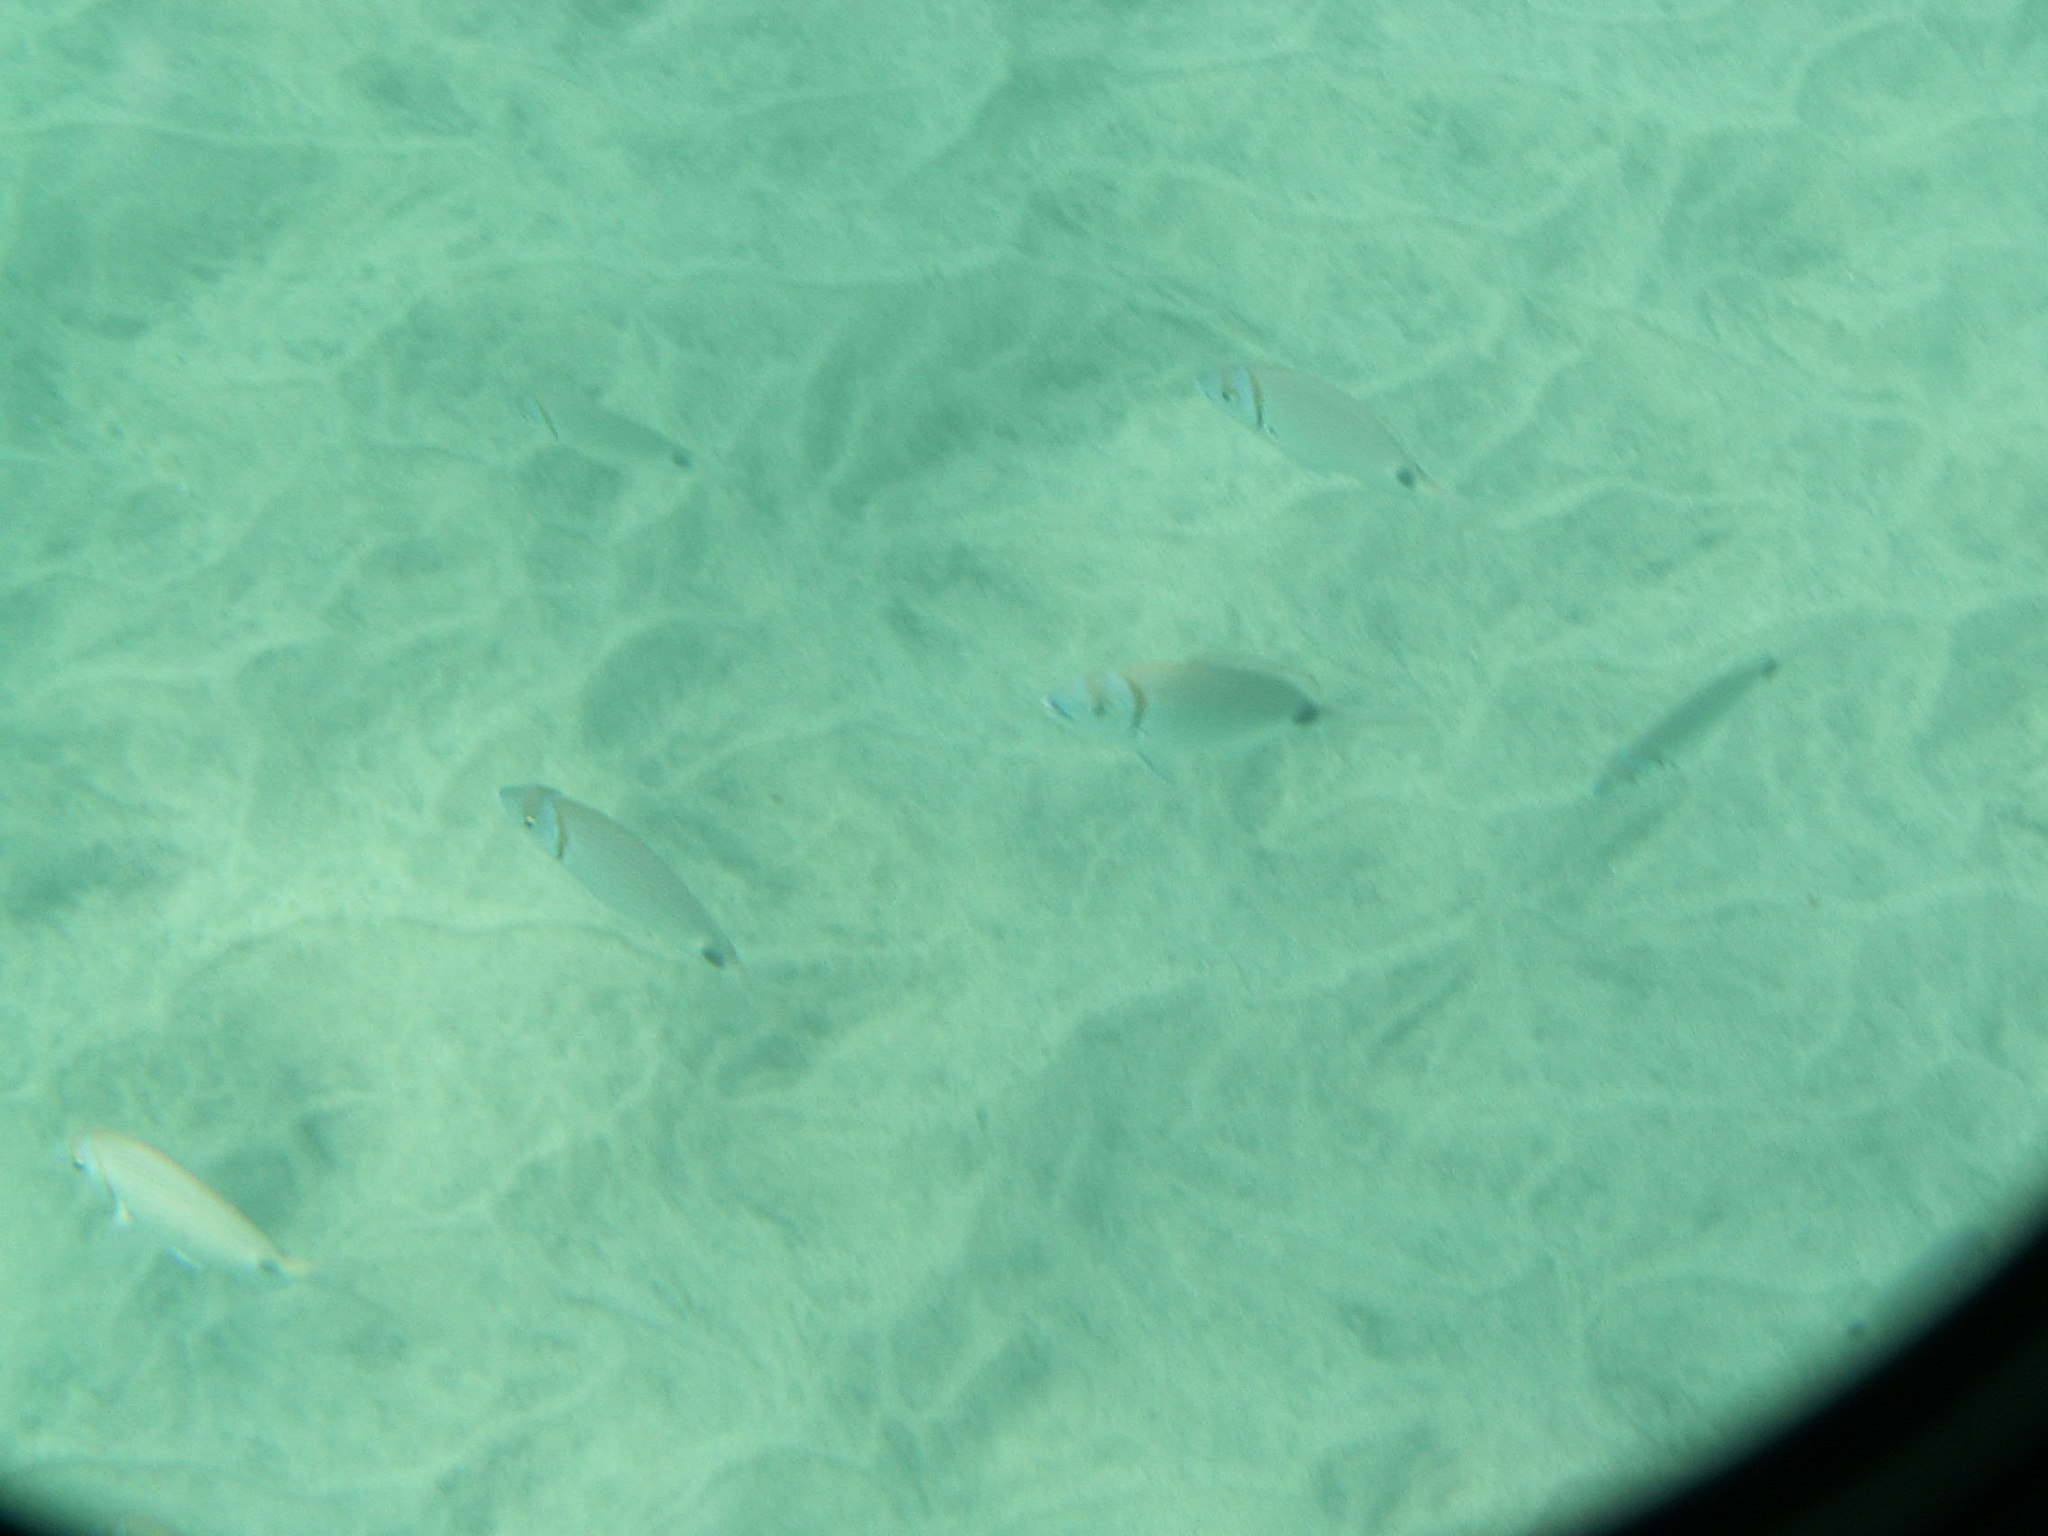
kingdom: Animalia
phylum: Chordata
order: Perciformes
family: Sparidae
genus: Diplodus
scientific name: Diplodus prayensis
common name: Two-banded seabream
